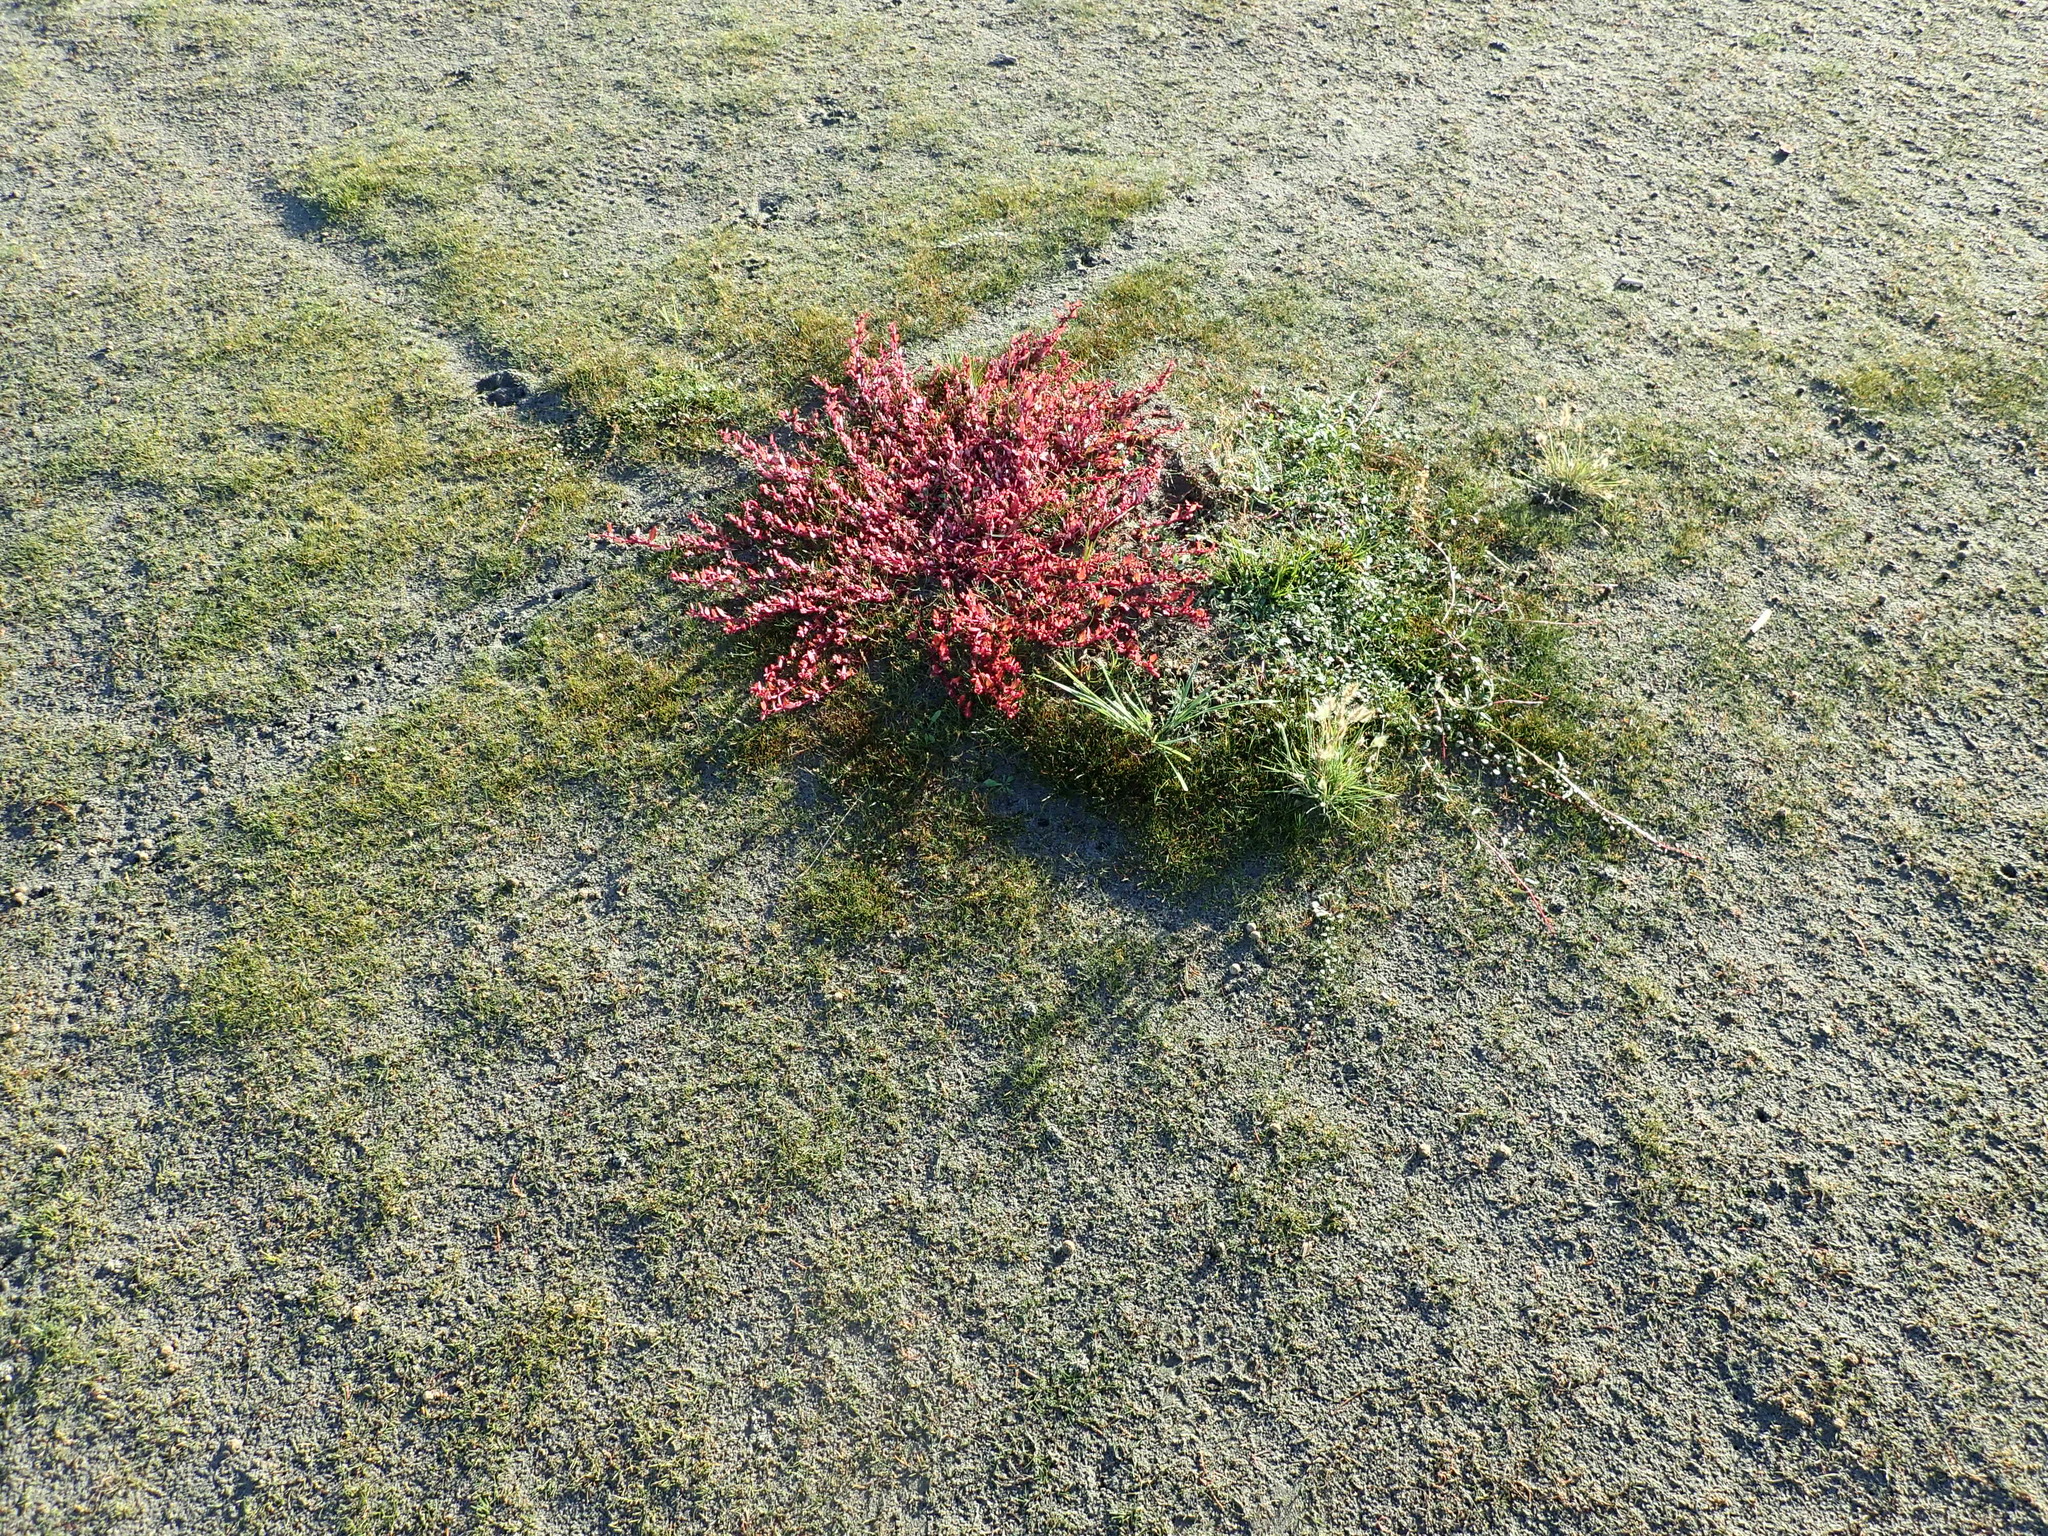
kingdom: Plantae
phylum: Tracheophyta
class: Magnoliopsida
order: Caryophyllales
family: Amaranthaceae
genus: Oxybasis
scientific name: Oxybasis ambigua
